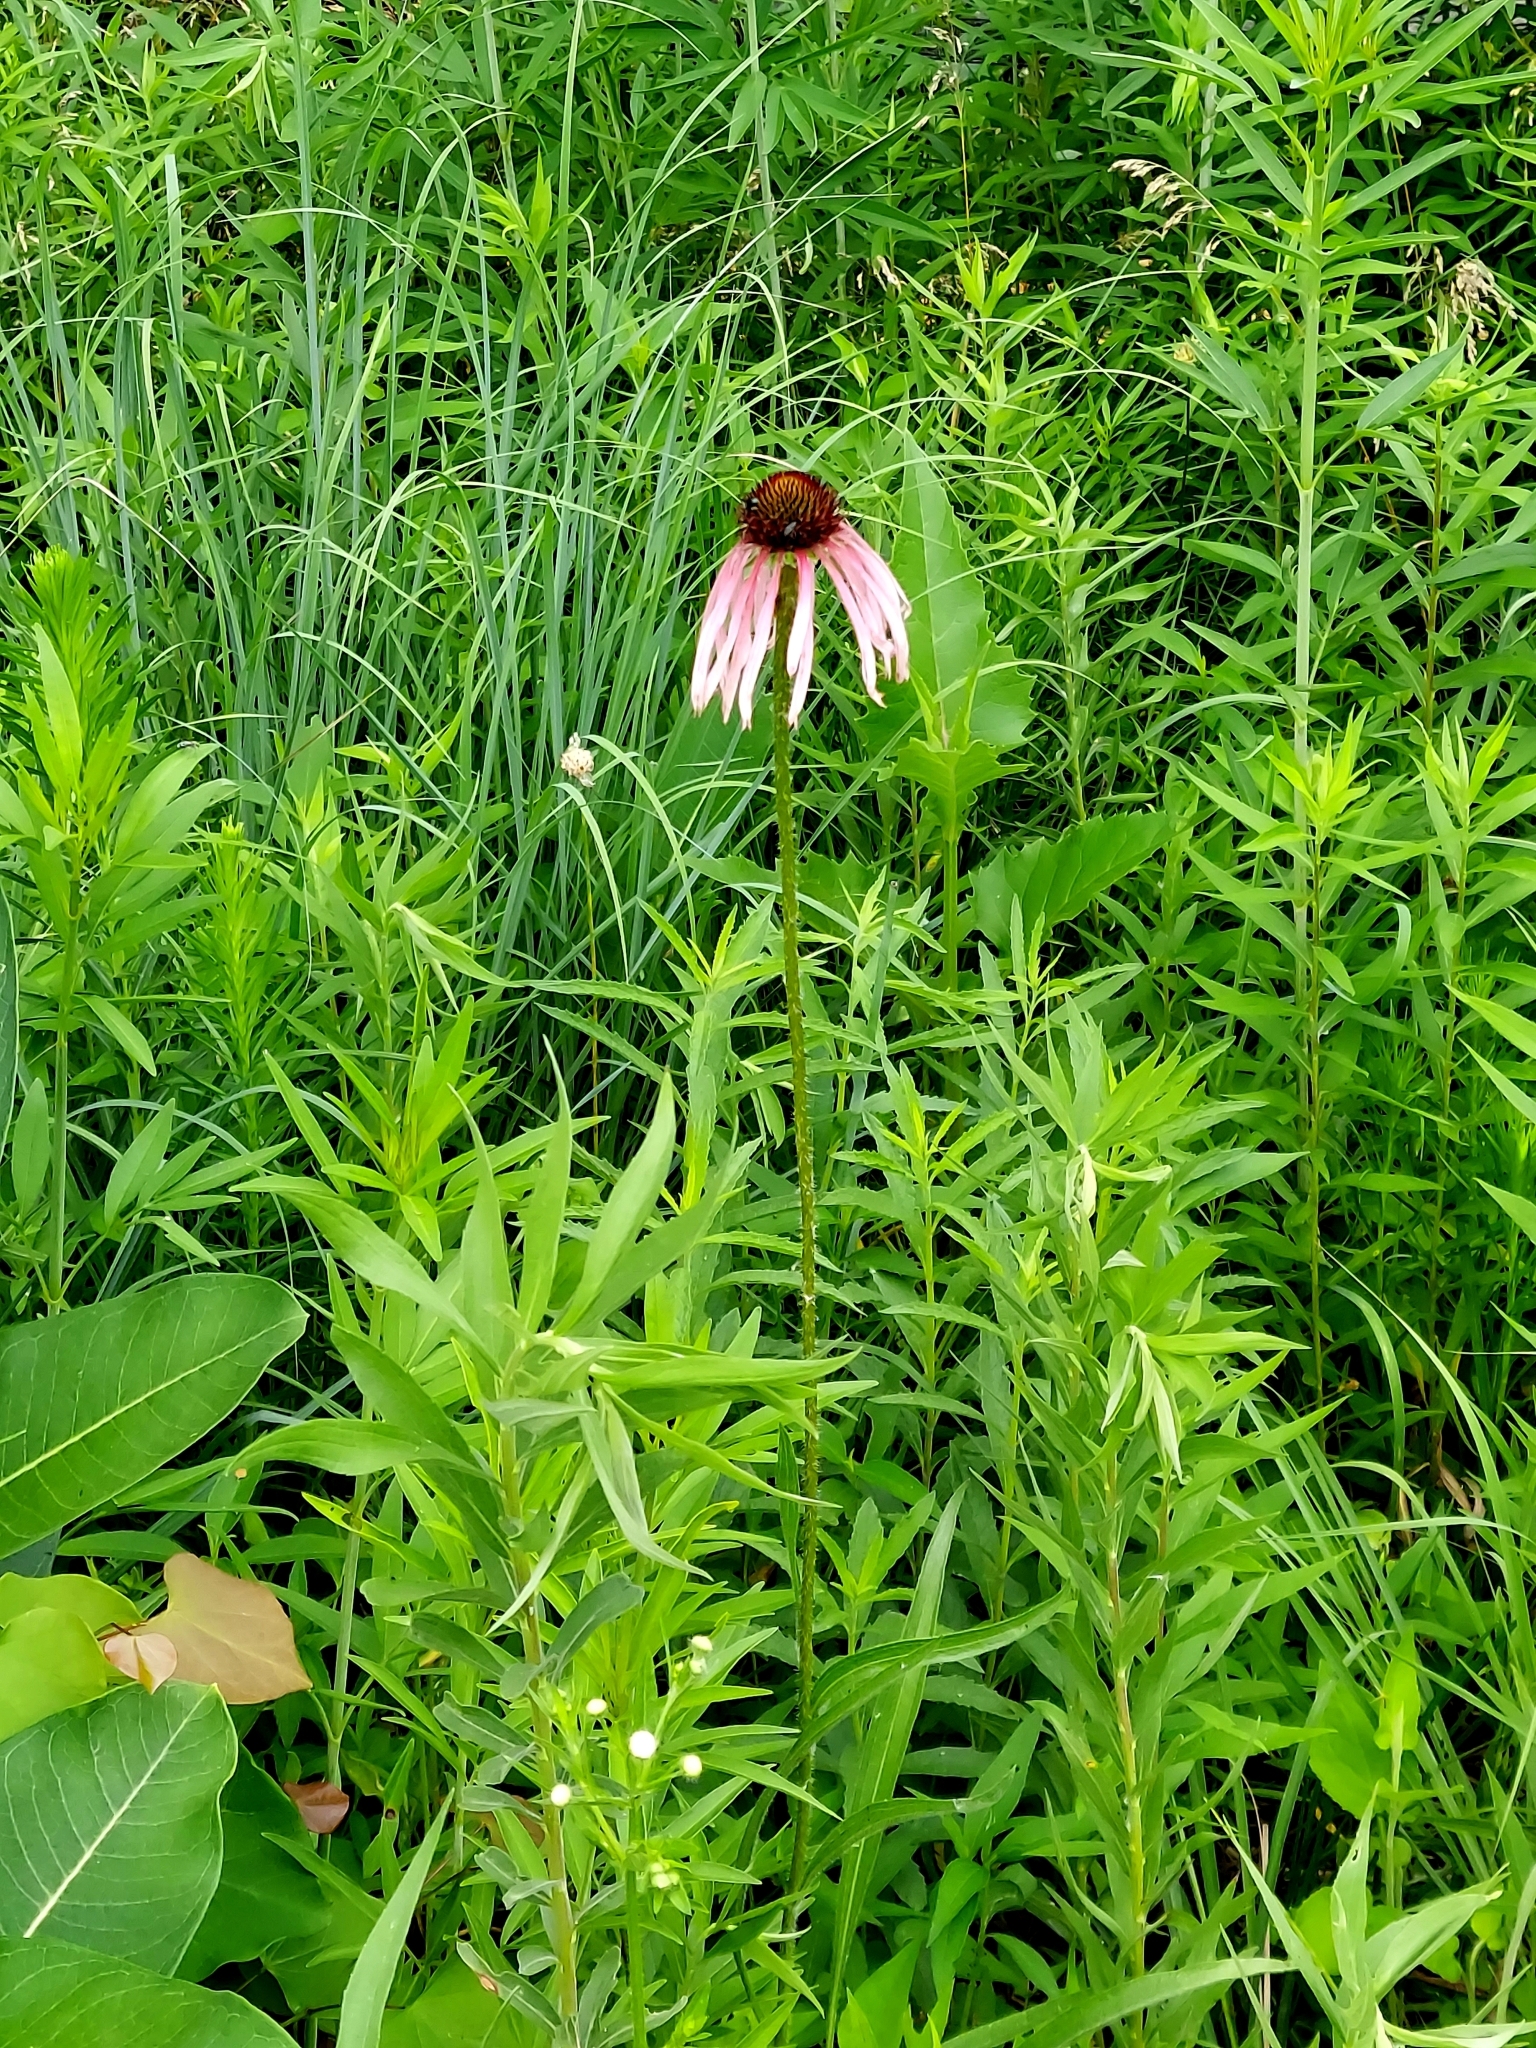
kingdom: Plantae
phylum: Tracheophyta
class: Magnoliopsida
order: Asterales
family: Asteraceae
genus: Echinacea
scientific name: Echinacea pallida
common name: Pale echinacea
